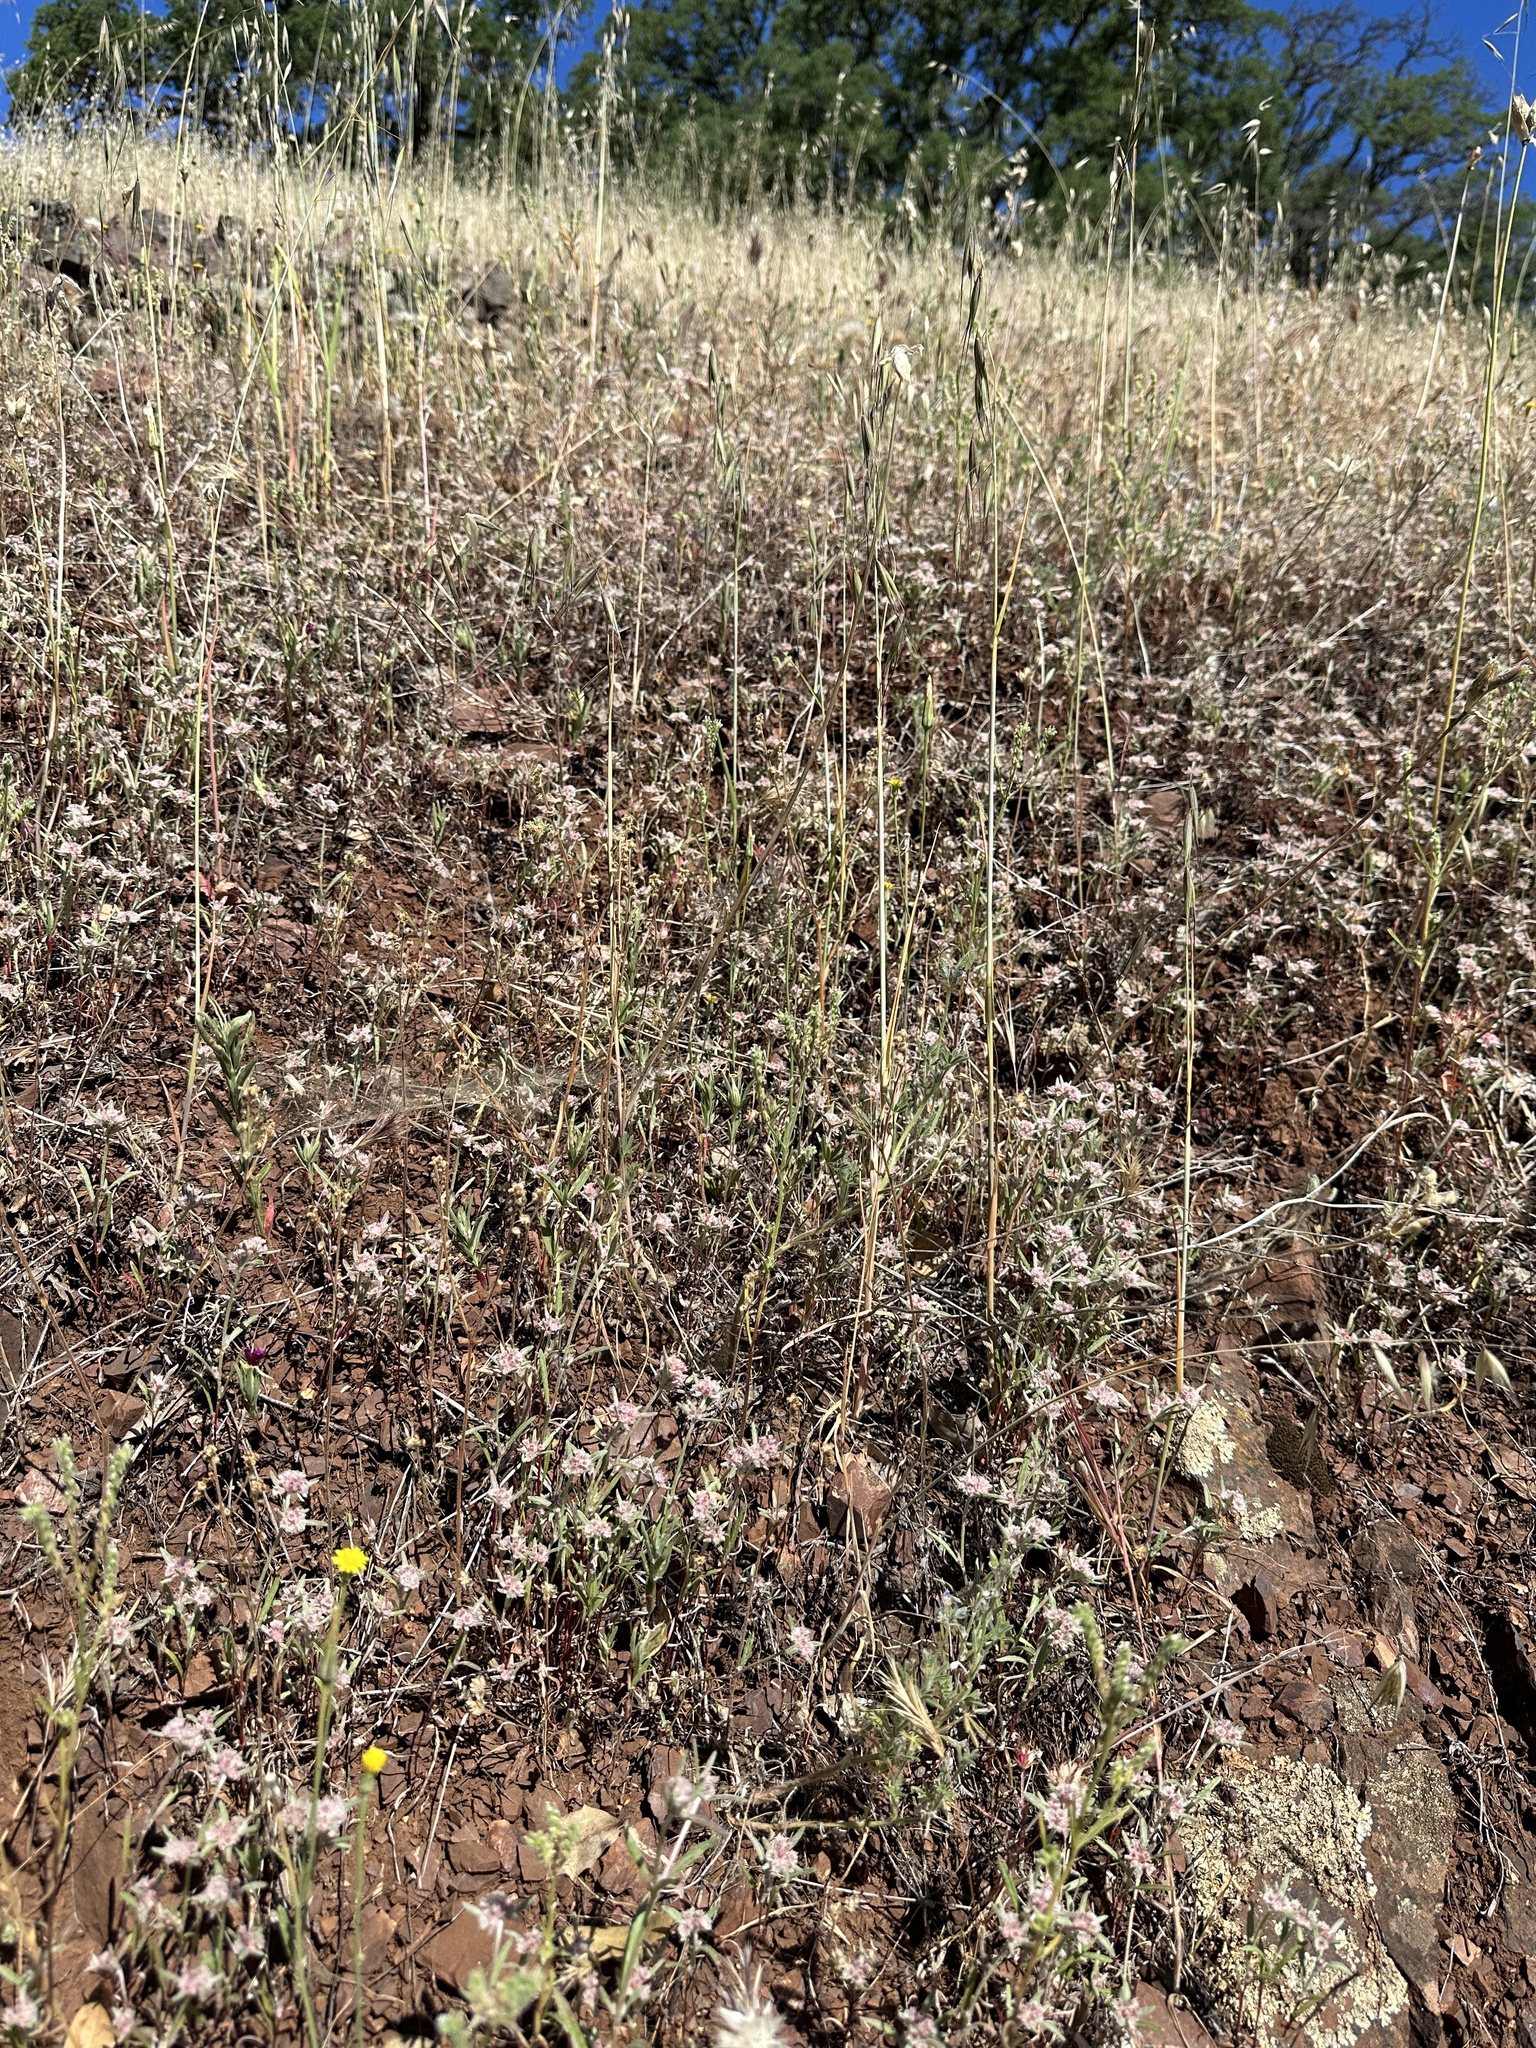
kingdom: Plantae
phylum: Tracheophyta
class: Magnoliopsida
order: Caryophyllales
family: Polygonaceae
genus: Chorizanthe
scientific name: Chorizanthe membranacea
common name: Pink spineflower
